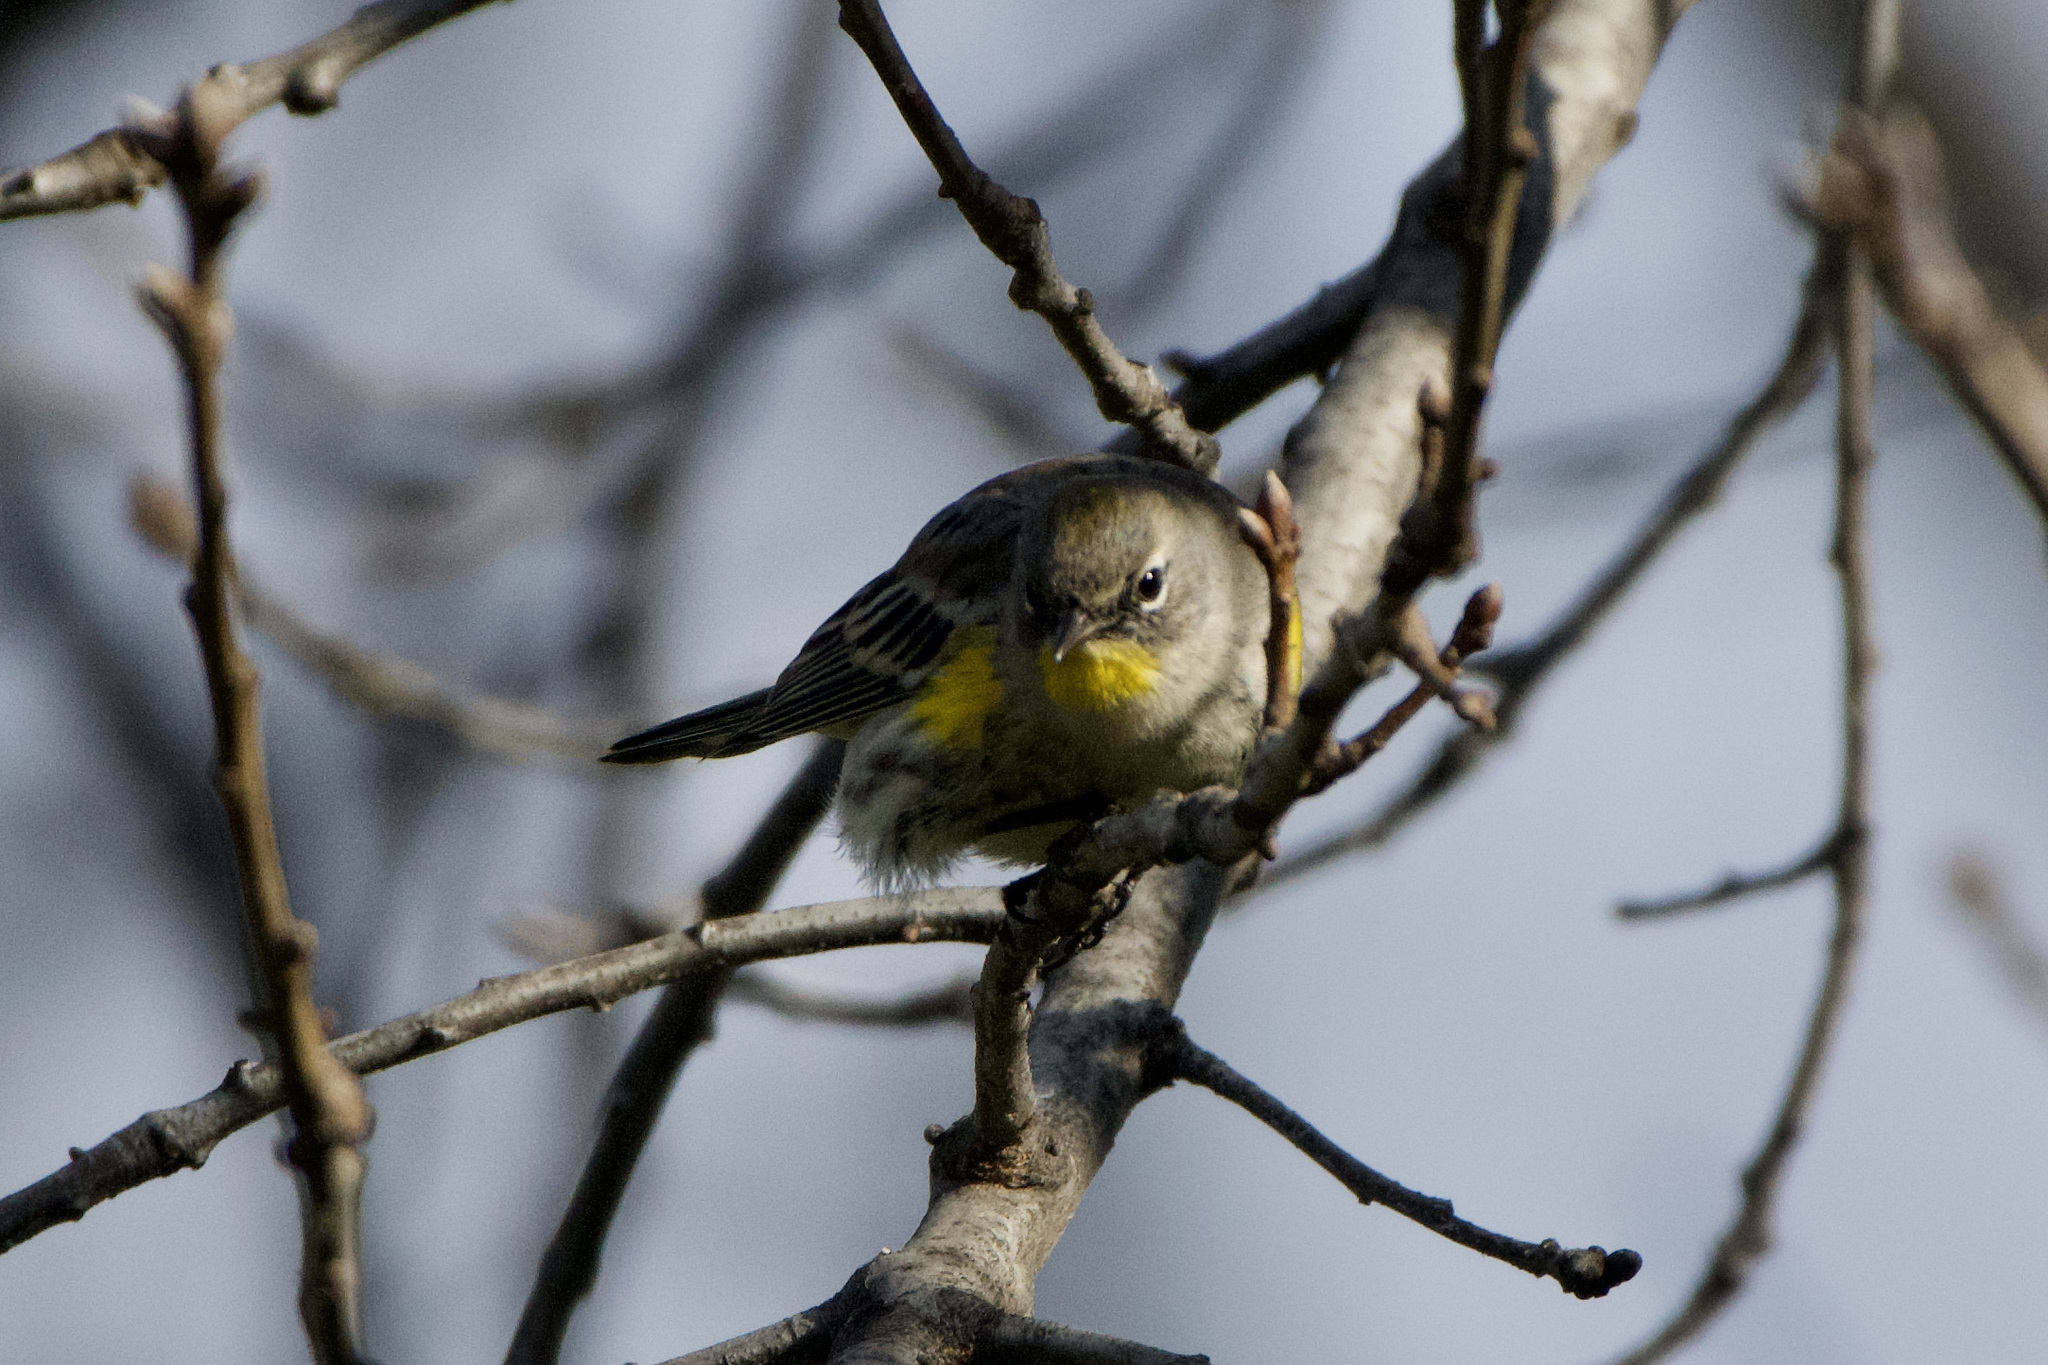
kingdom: Animalia
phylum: Chordata
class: Aves
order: Passeriformes
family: Parulidae
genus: Setophaga
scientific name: Setophaga auduboni
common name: Audubon's warbler
